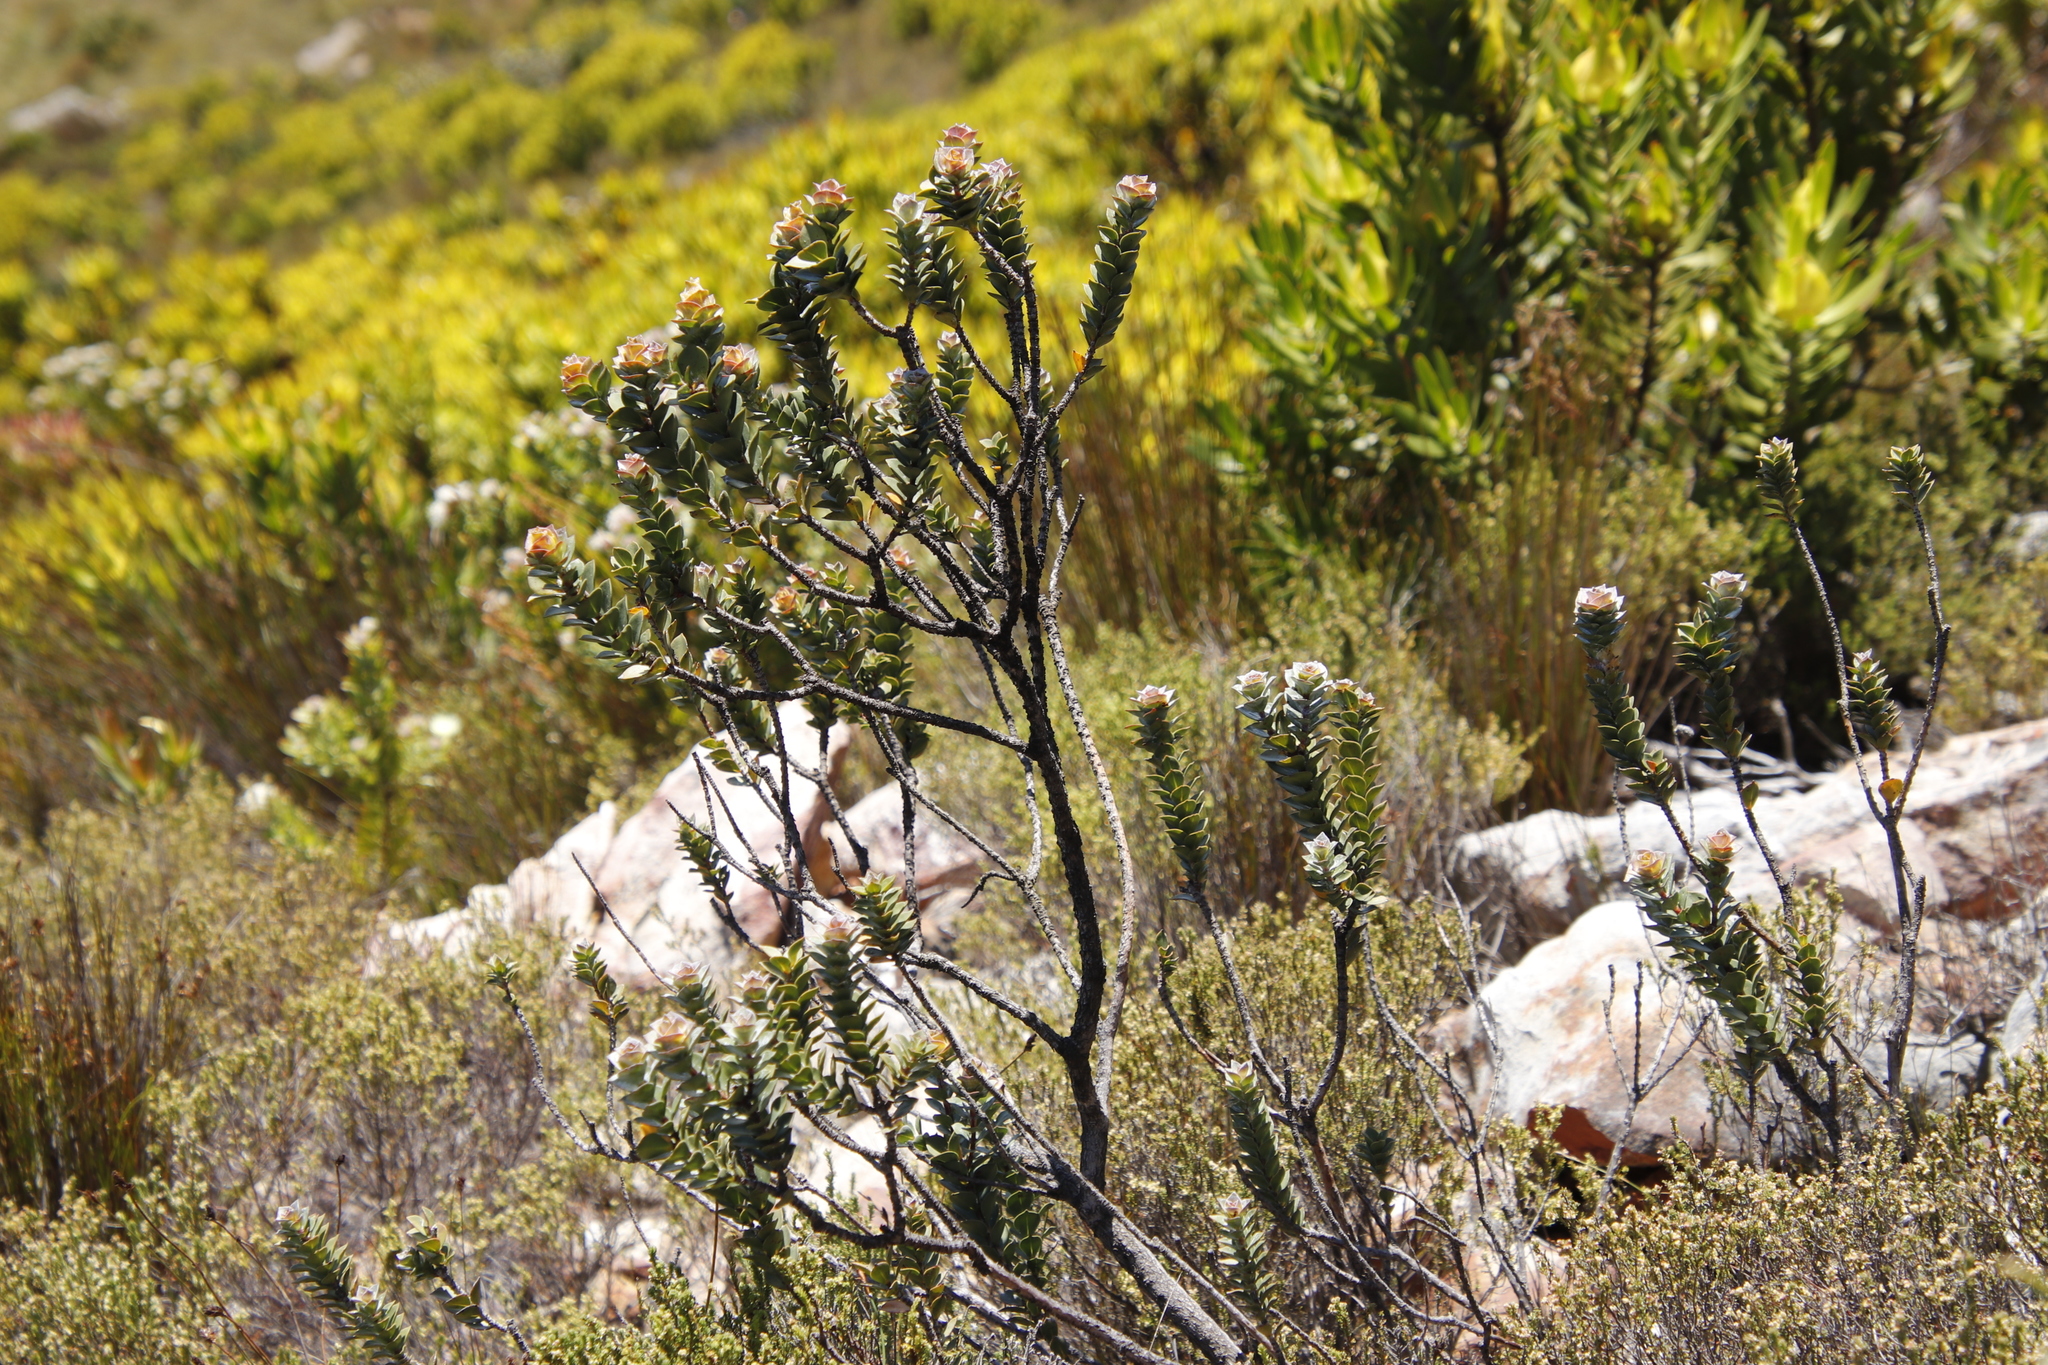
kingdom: Plantae
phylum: Tracheophyta
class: Magnoliopsida
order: Myrtales
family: Penaeaceae
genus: Saltera
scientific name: Saltera sarcocolla
